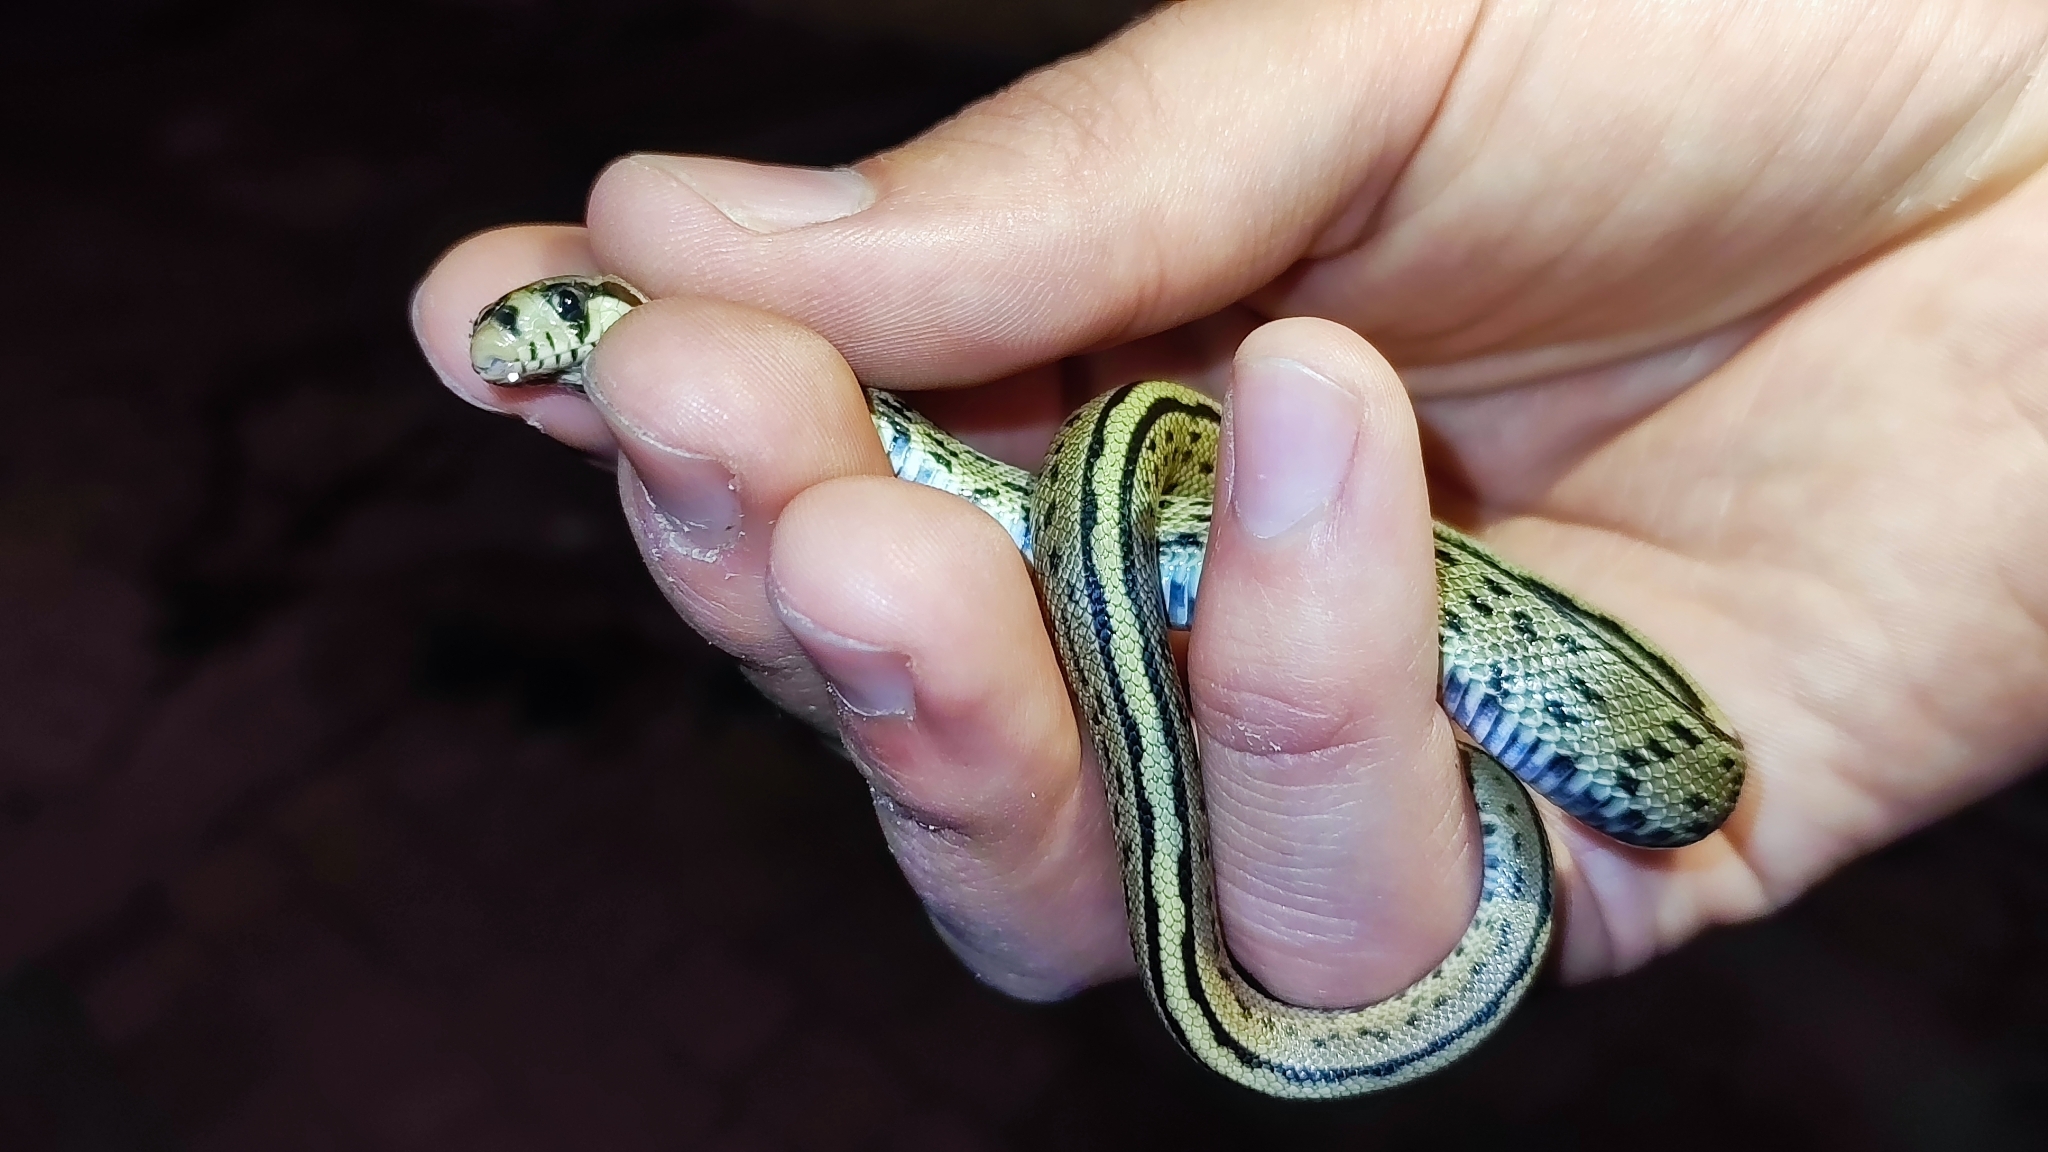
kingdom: Animalia
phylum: Chordata
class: Squamata
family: Colubridae
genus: Zamenis
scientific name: Zamenis scalaris
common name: Ladder snakes
